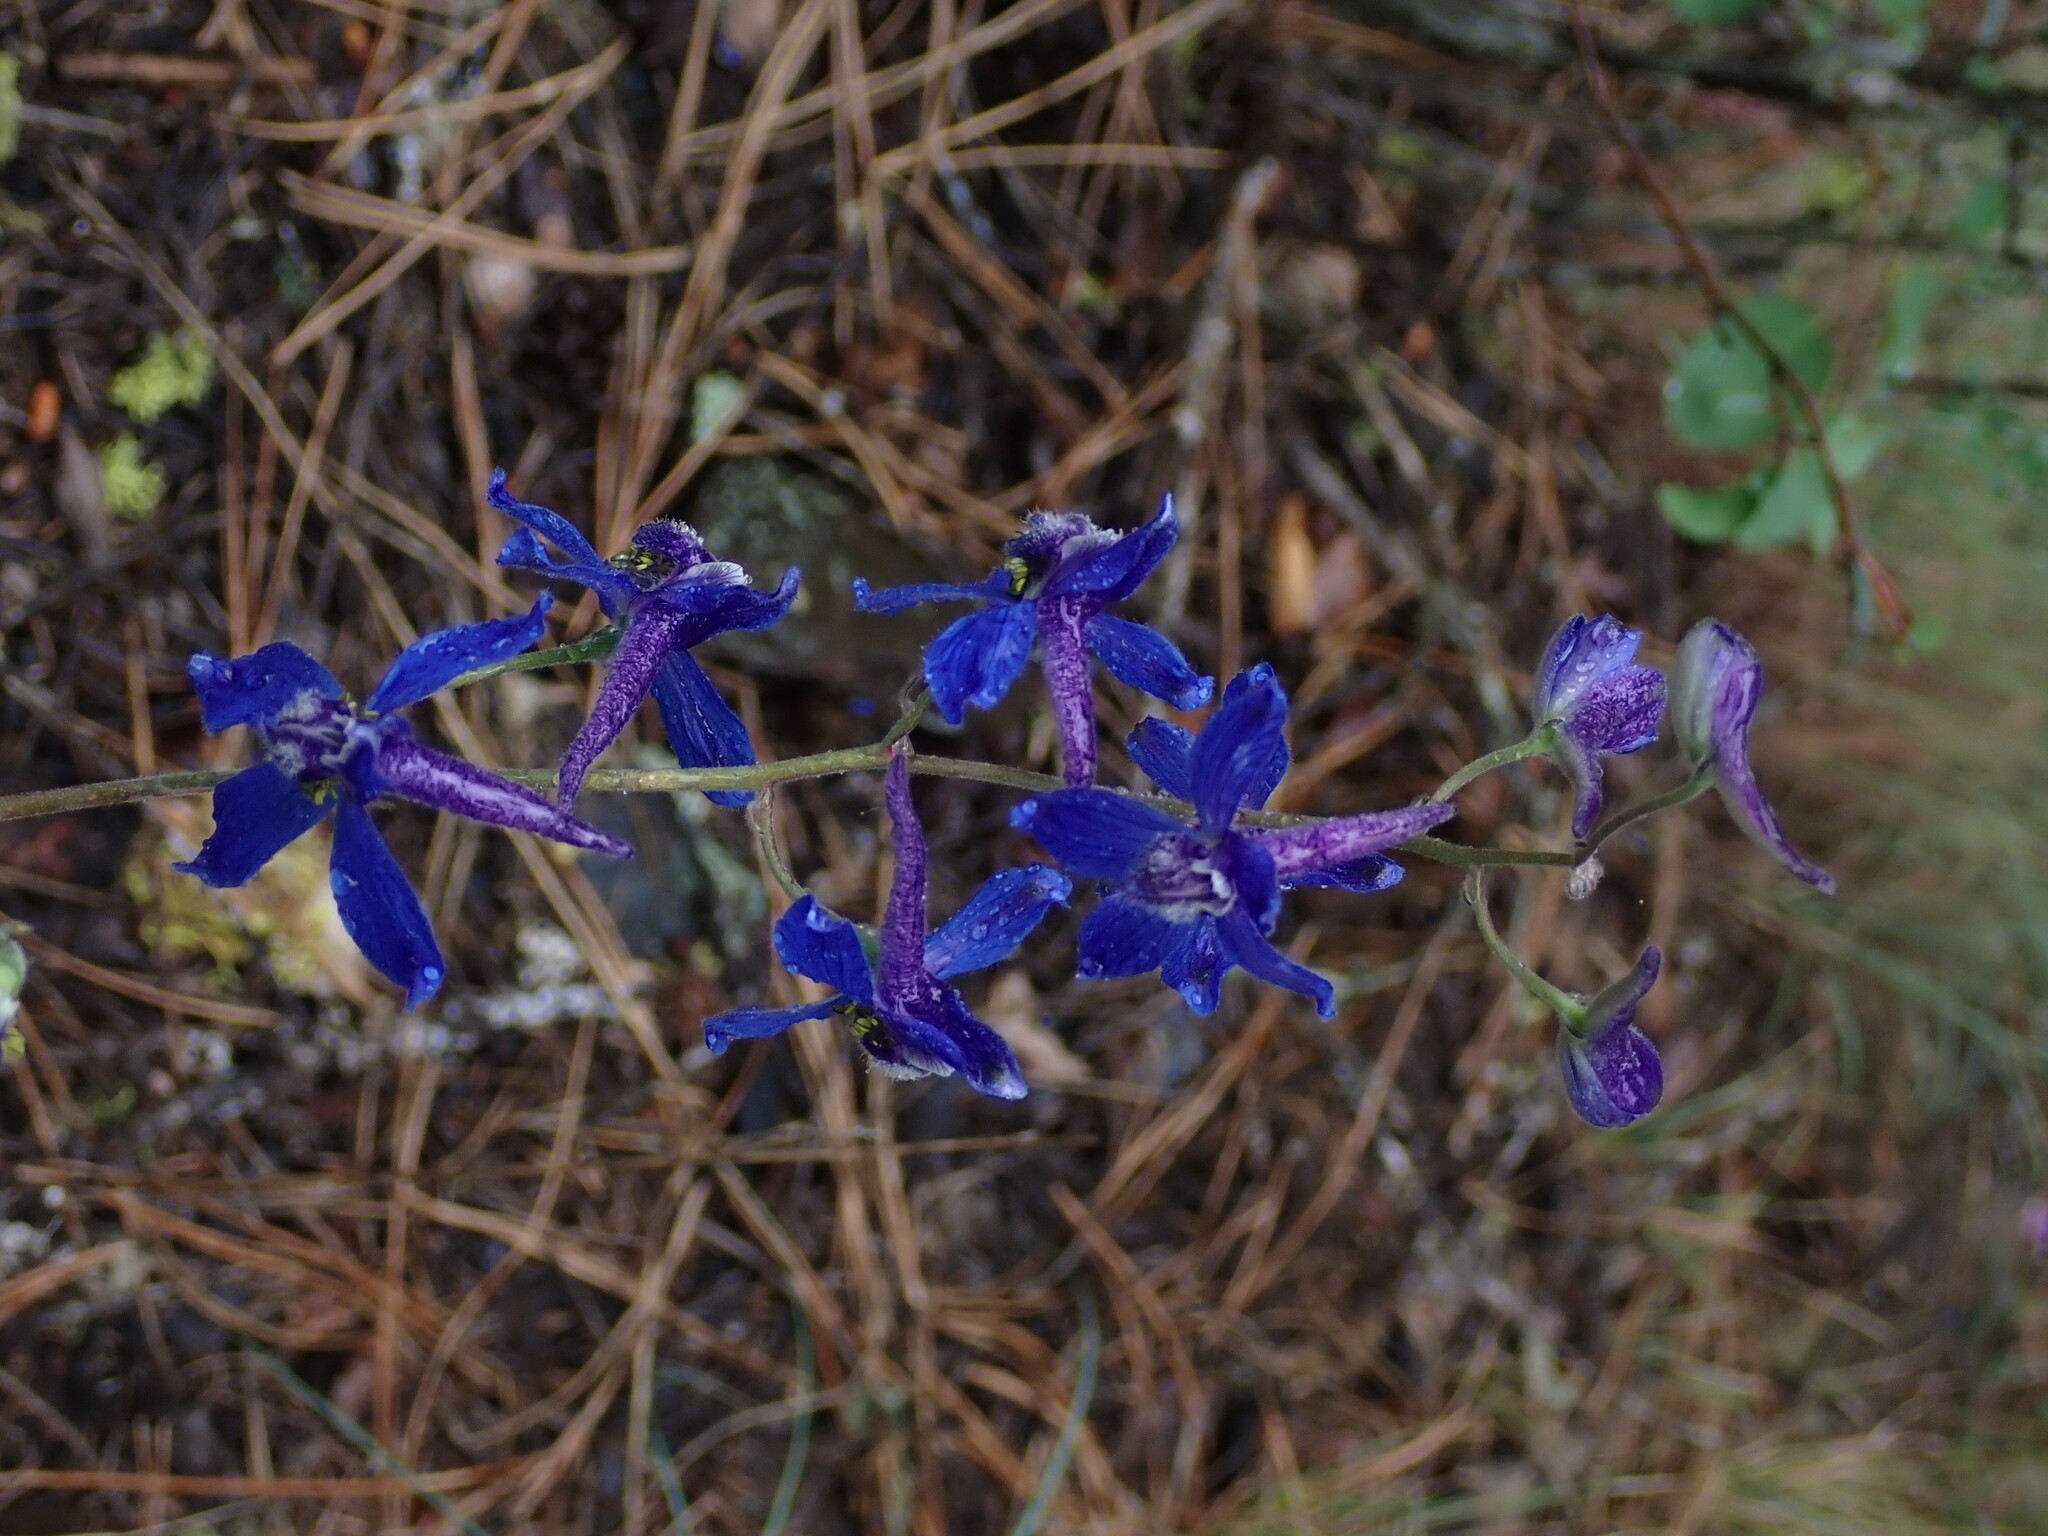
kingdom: Plantae
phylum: Tracheophyta
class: Magnoliopsida
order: Ranunculales
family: Ranunculaceae
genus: Delphinium
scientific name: Delphinium nuttallianum
